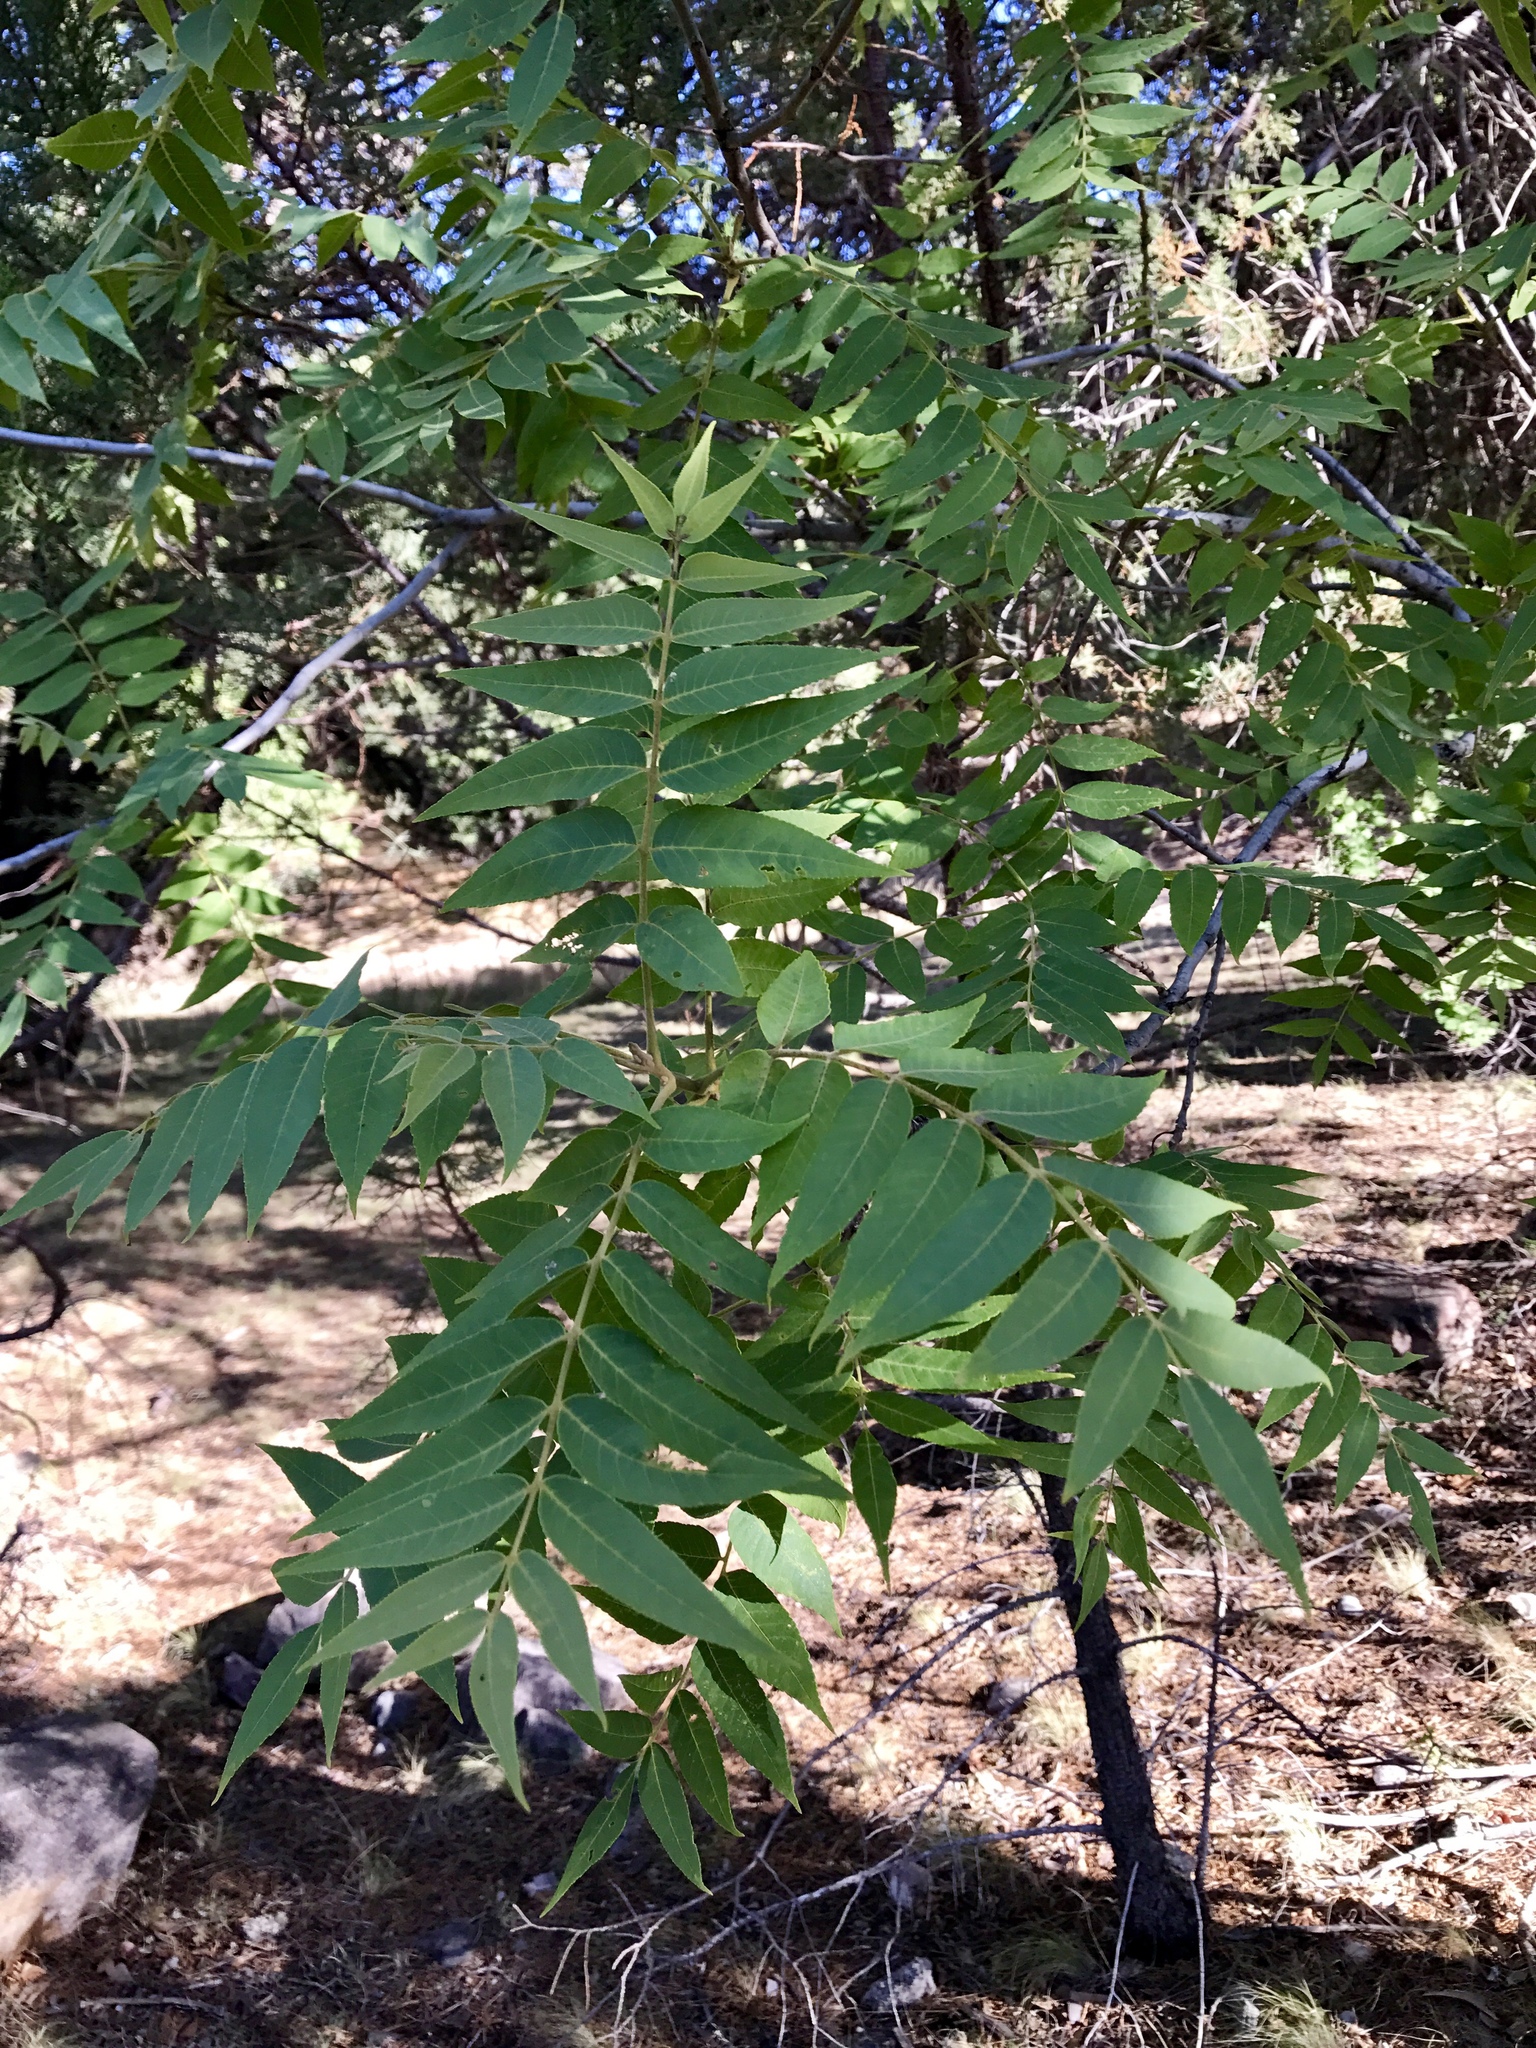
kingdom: Plantae
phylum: Tracheophyta
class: Magnoliopsida
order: Fagales
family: Juglandaceae
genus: Juglans
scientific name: Juglans major
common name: Arizona walnut
